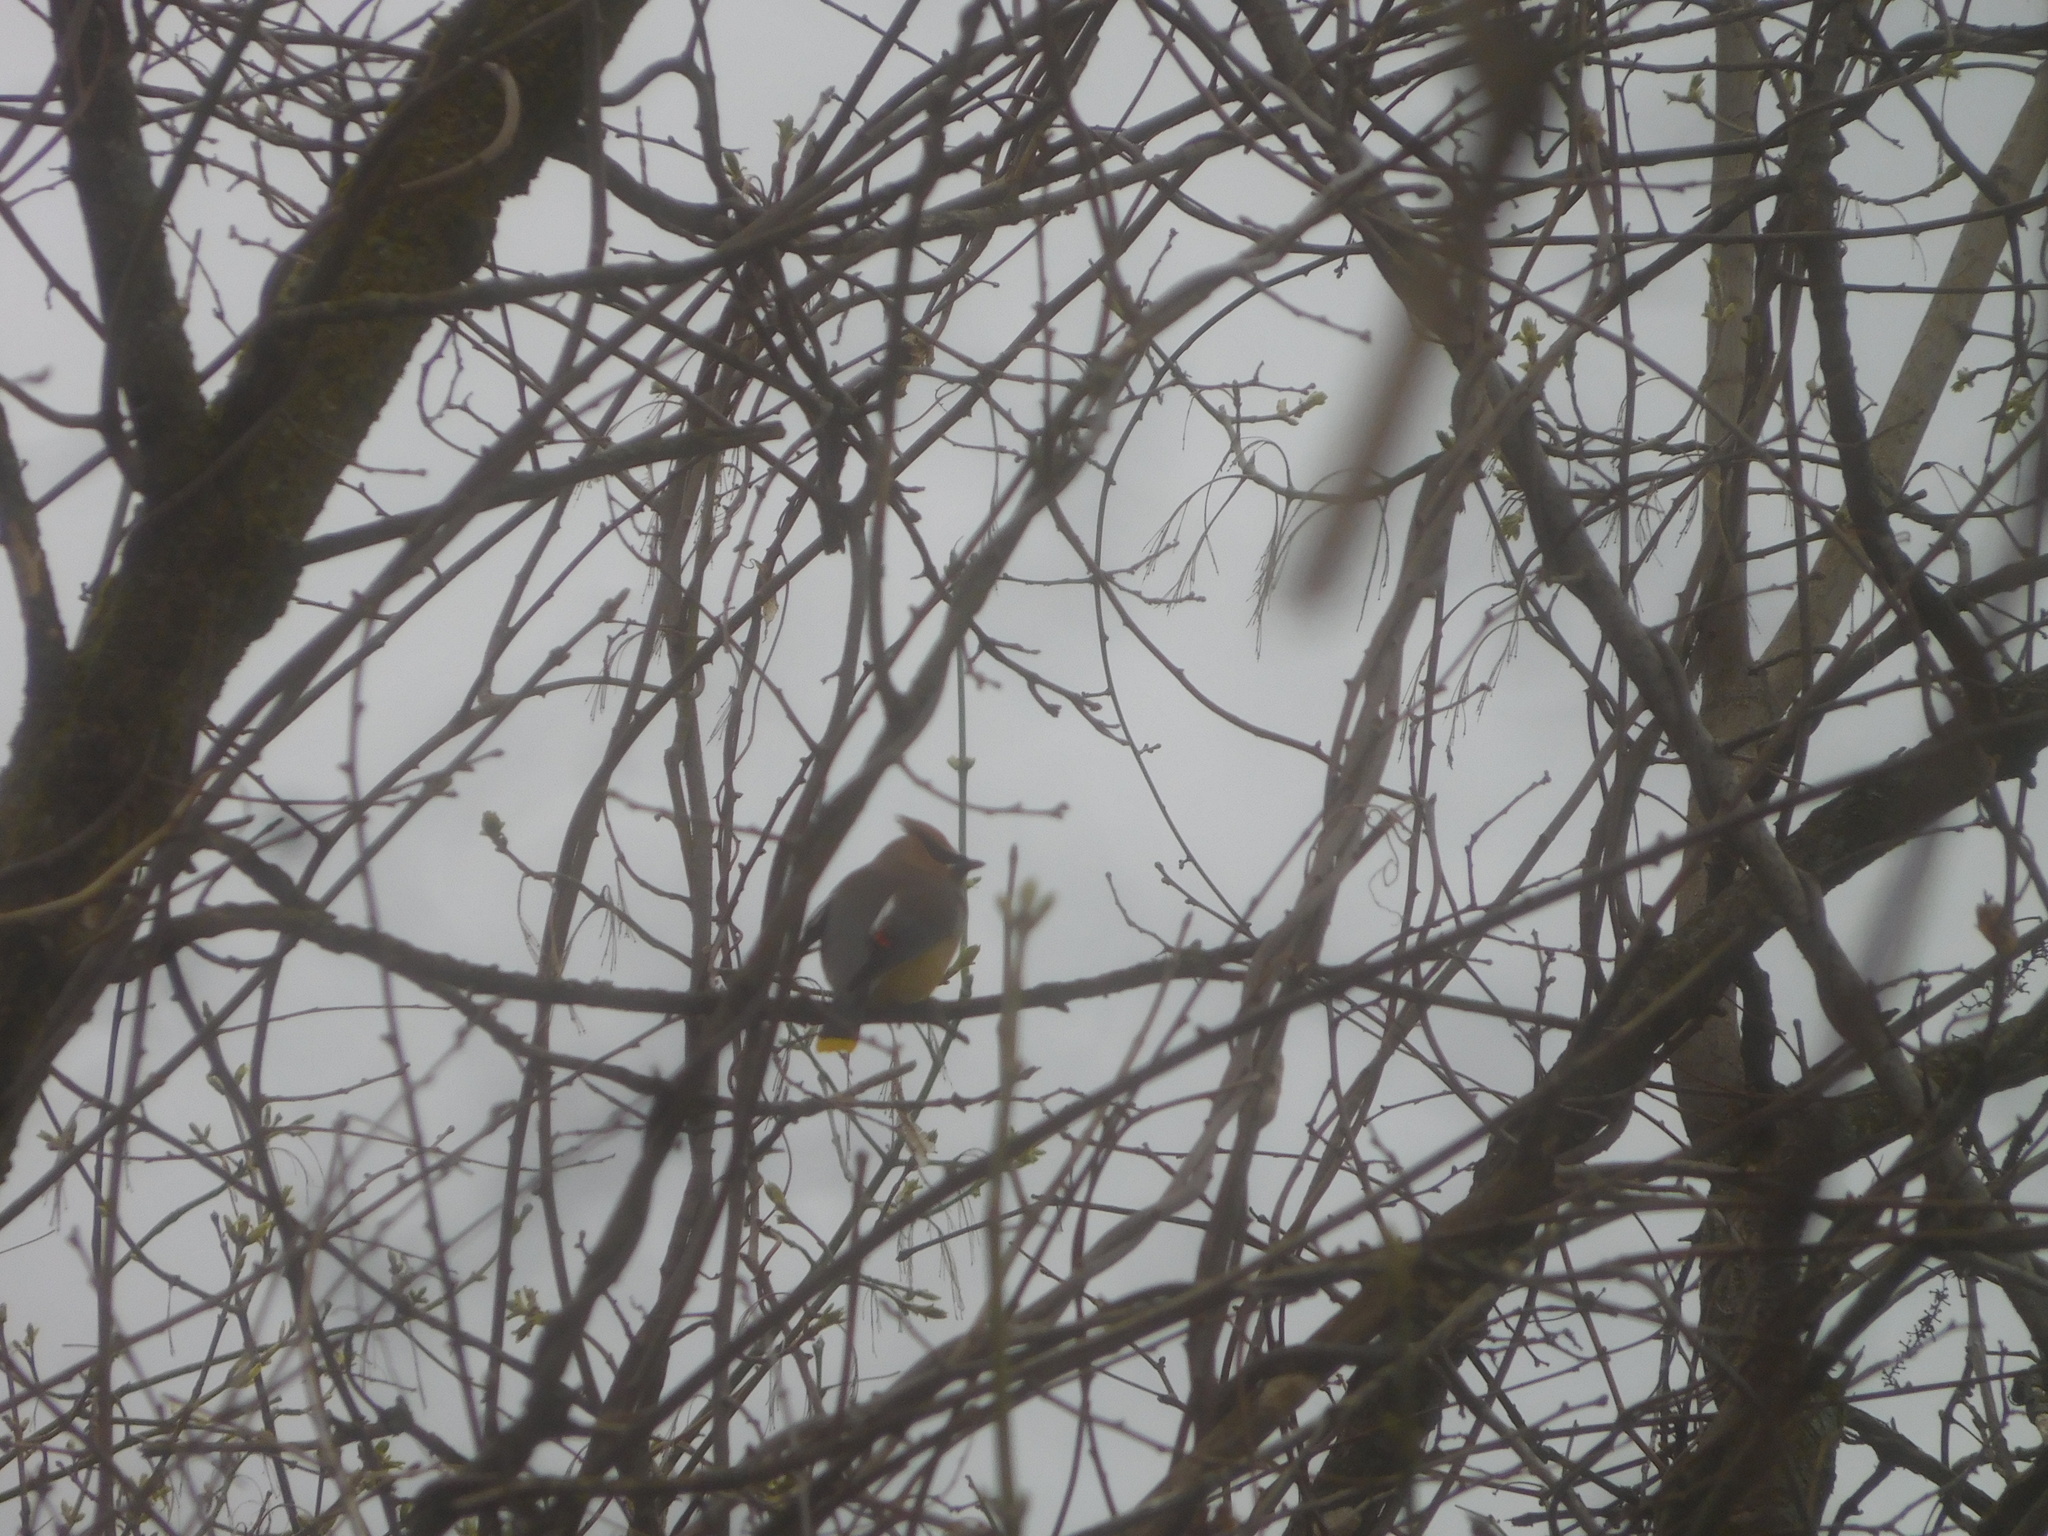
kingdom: Animalia
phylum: Chordata
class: Aves
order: Passeriformes
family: Bombycillidae
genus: Bombycilla
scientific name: Bombycilla cedrorum
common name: Cedar waxwing
